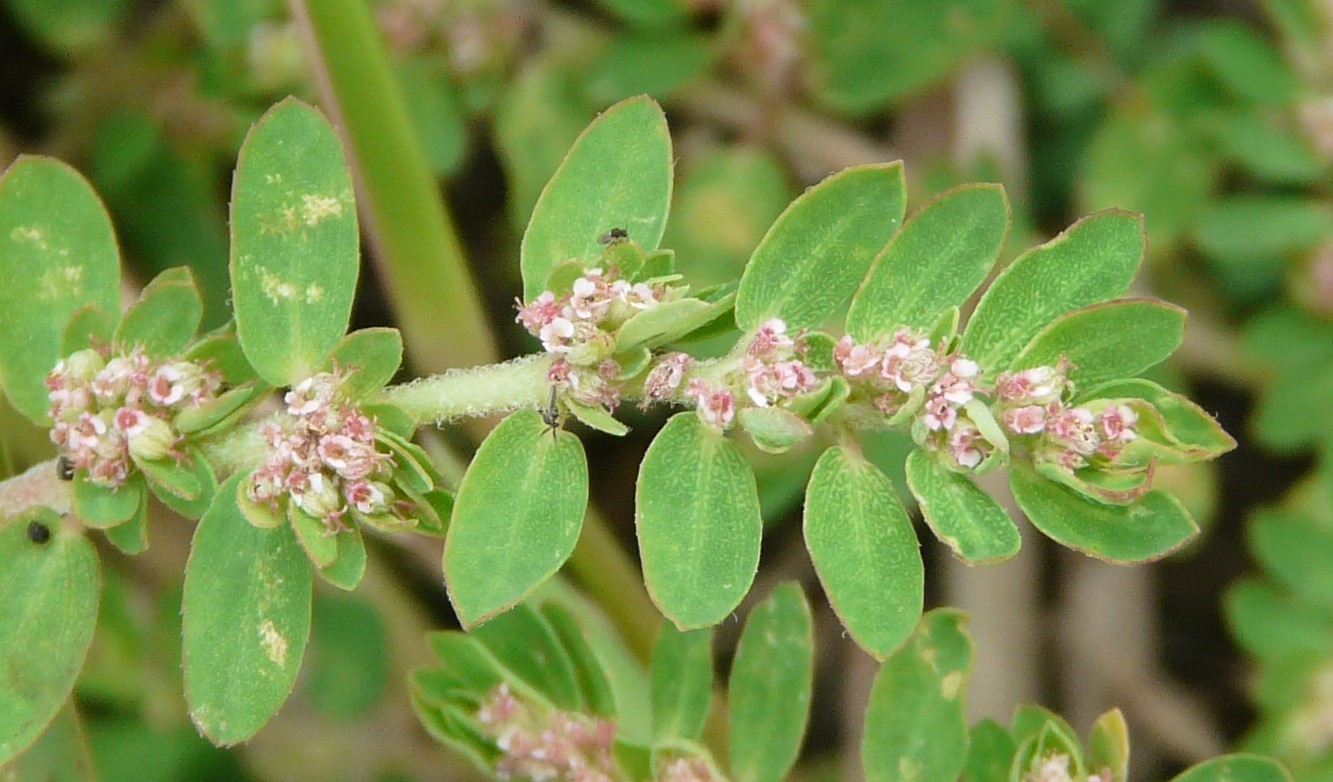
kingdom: Plantae
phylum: Tracheophyta
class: Magnoliopsida
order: Malpighiales
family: Euphorbiaceae
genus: Euphorbia
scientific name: Euphorbia humistrata
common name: Hairy spreading spurge
